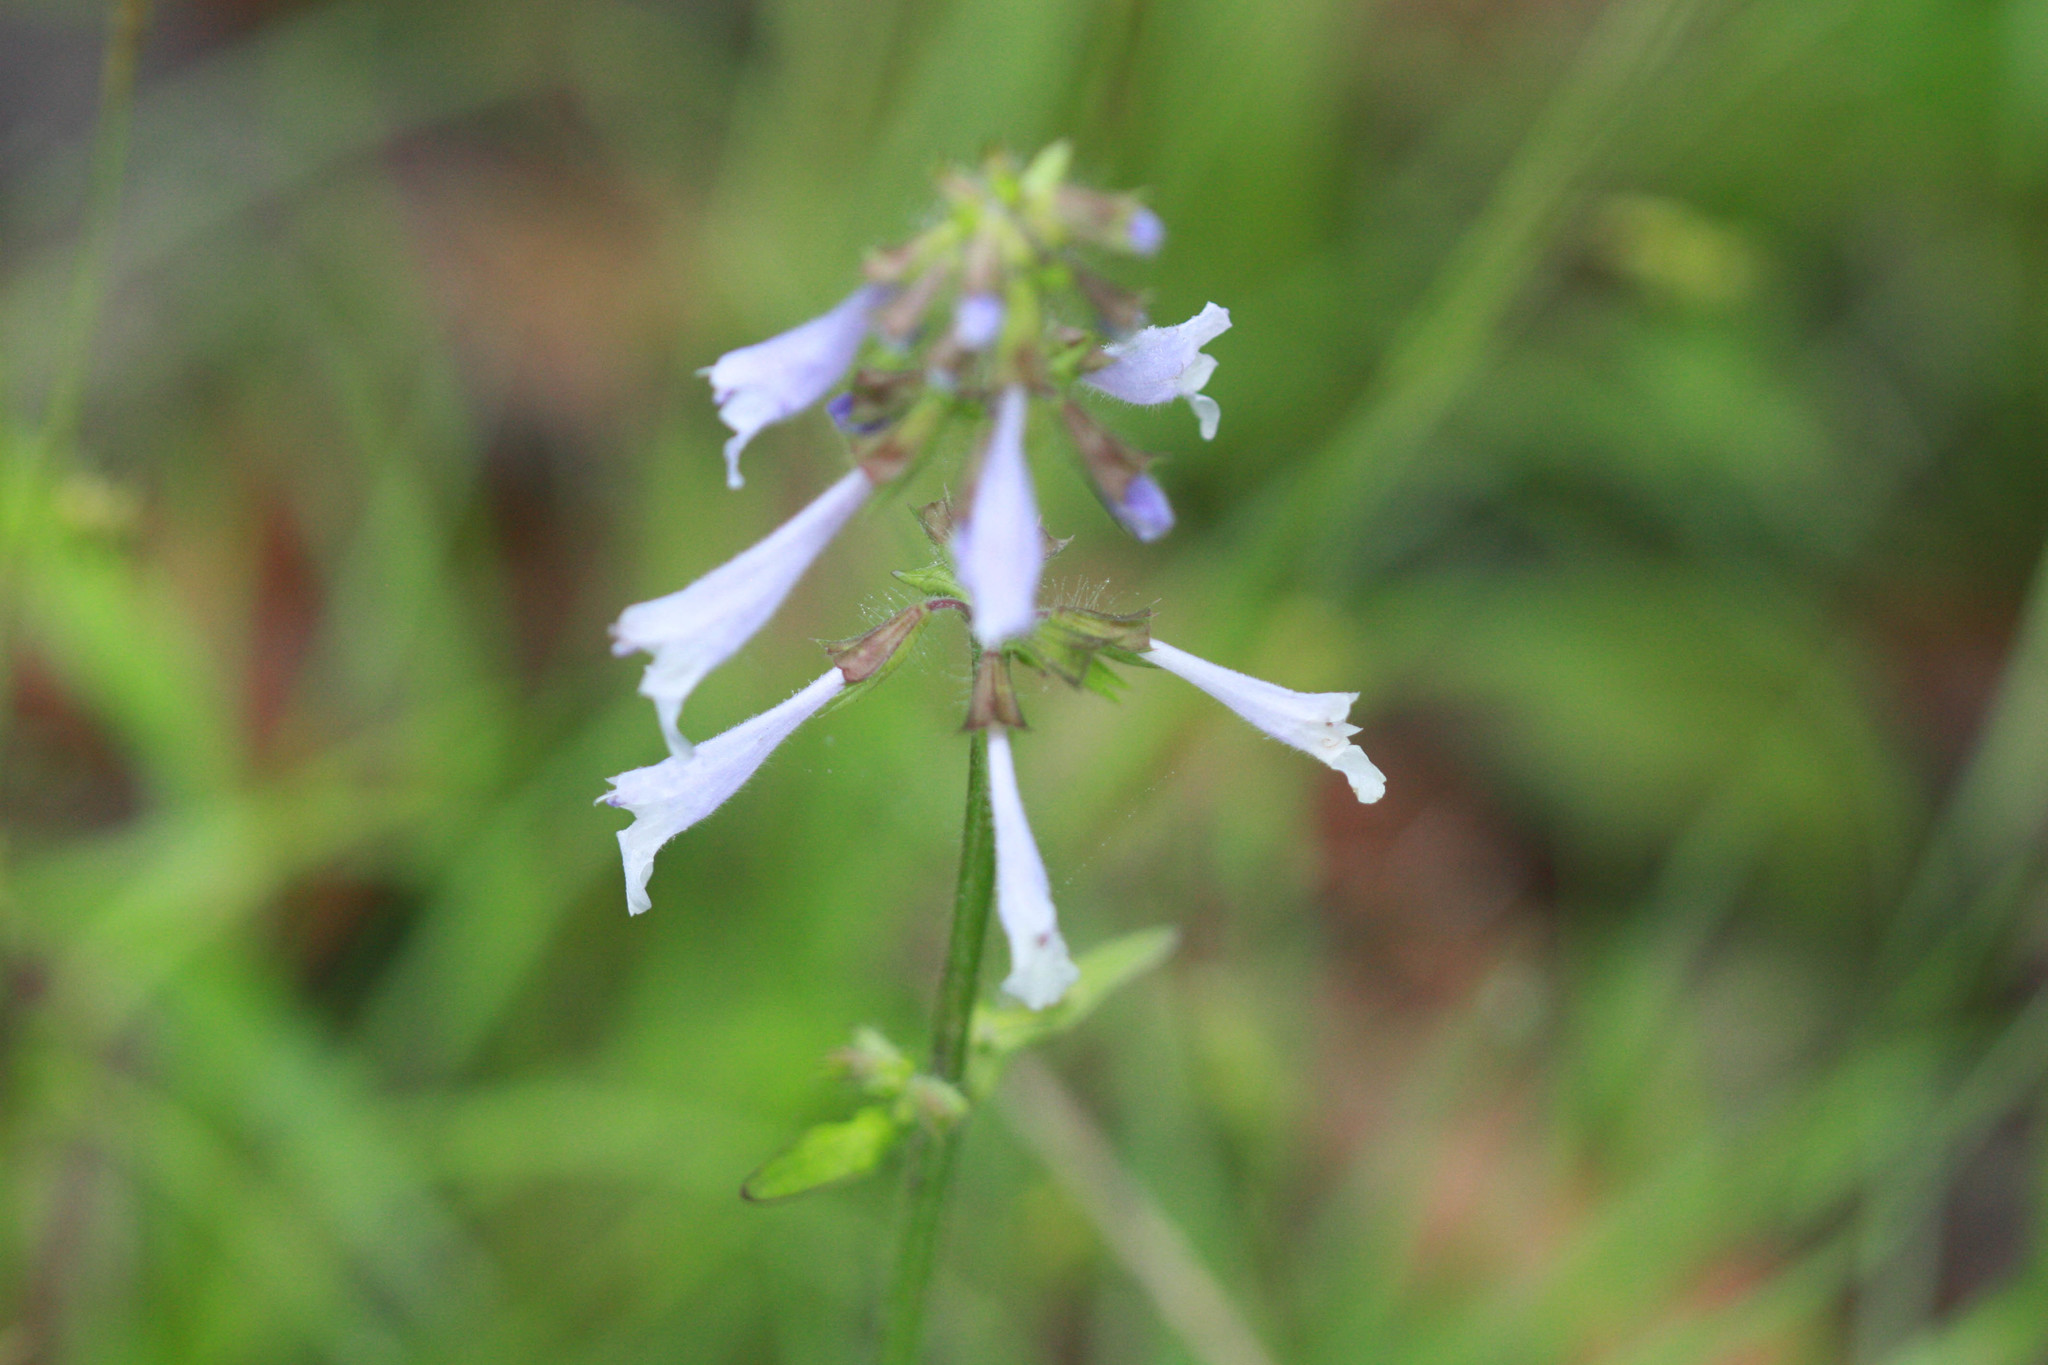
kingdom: Plantae
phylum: Tracheophyta
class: Magnoliopsida
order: Lamiales
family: Lamiaceae
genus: Salvia
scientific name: Salvia lyrata
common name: Cancerweed
